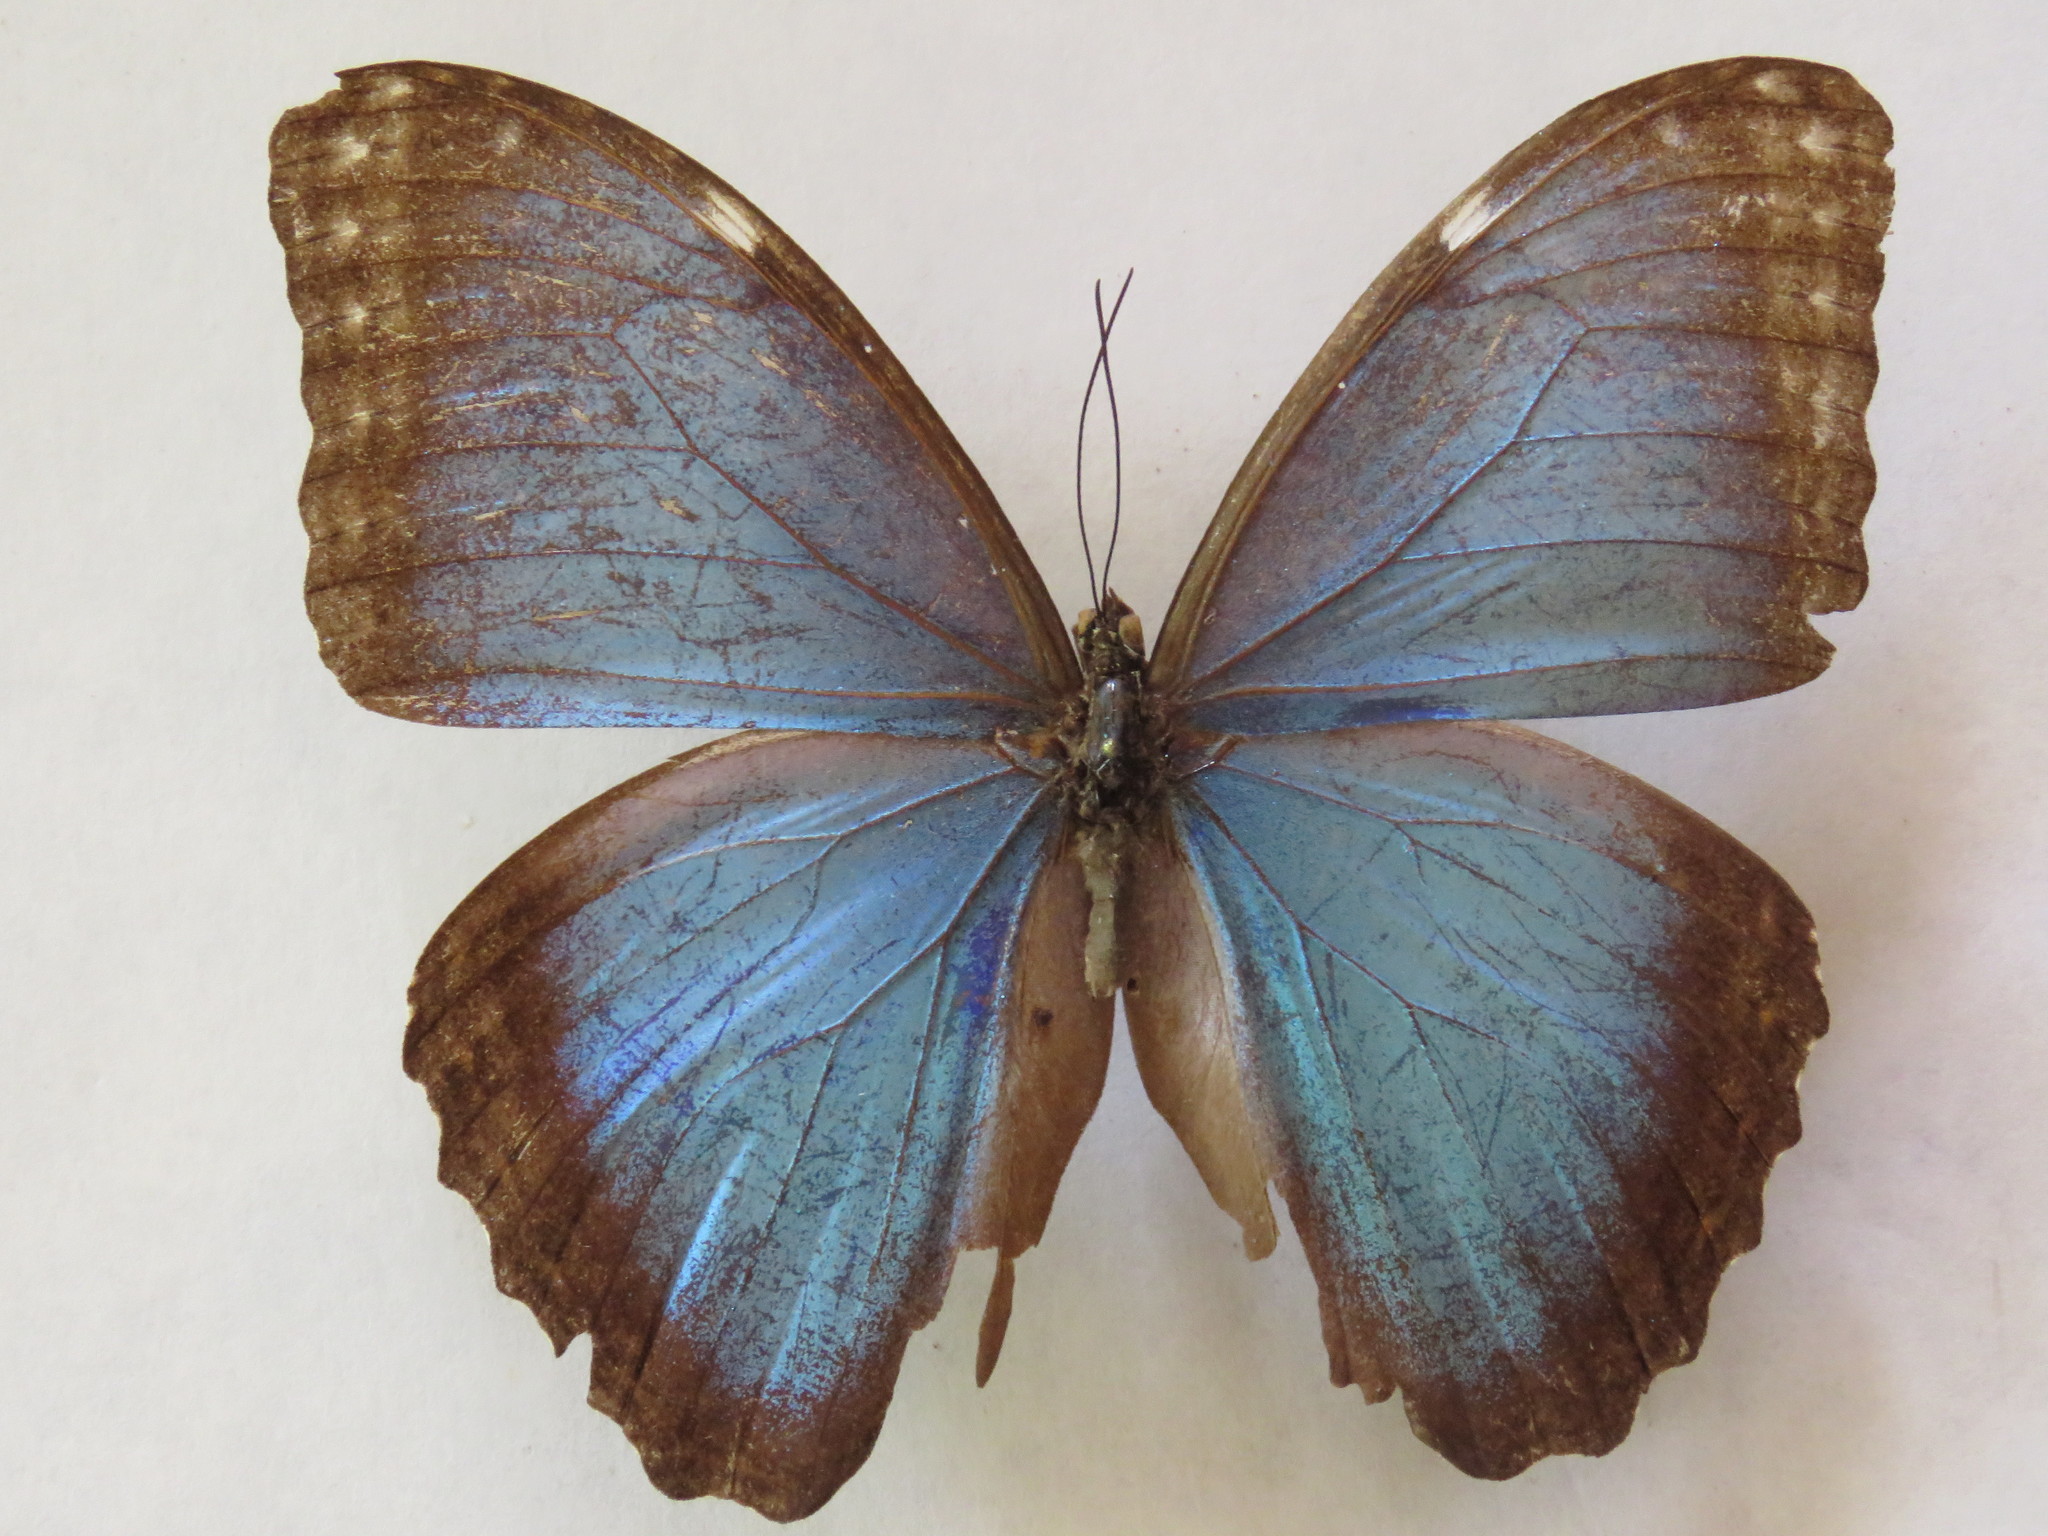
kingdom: Animalia
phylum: Arthropoda
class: Insecta
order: Lepidoptera
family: Nymphalidae
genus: Morpho
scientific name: Morpho helenor
